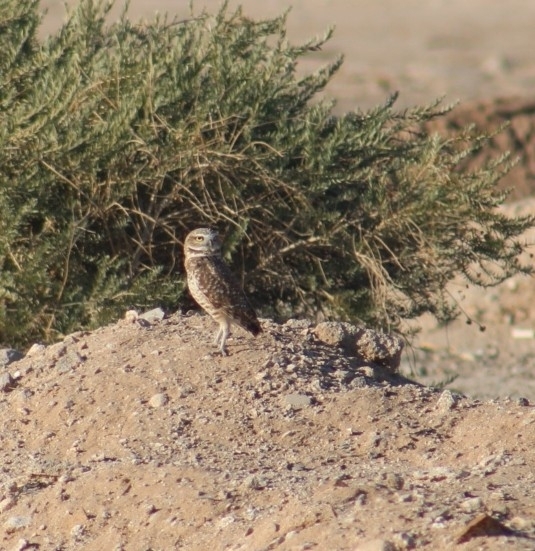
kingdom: Animalia
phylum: Chordata
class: Aves
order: Strigiformes
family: Strigidae
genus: Athene
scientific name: Athene cunicularia
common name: Burrowing owl
